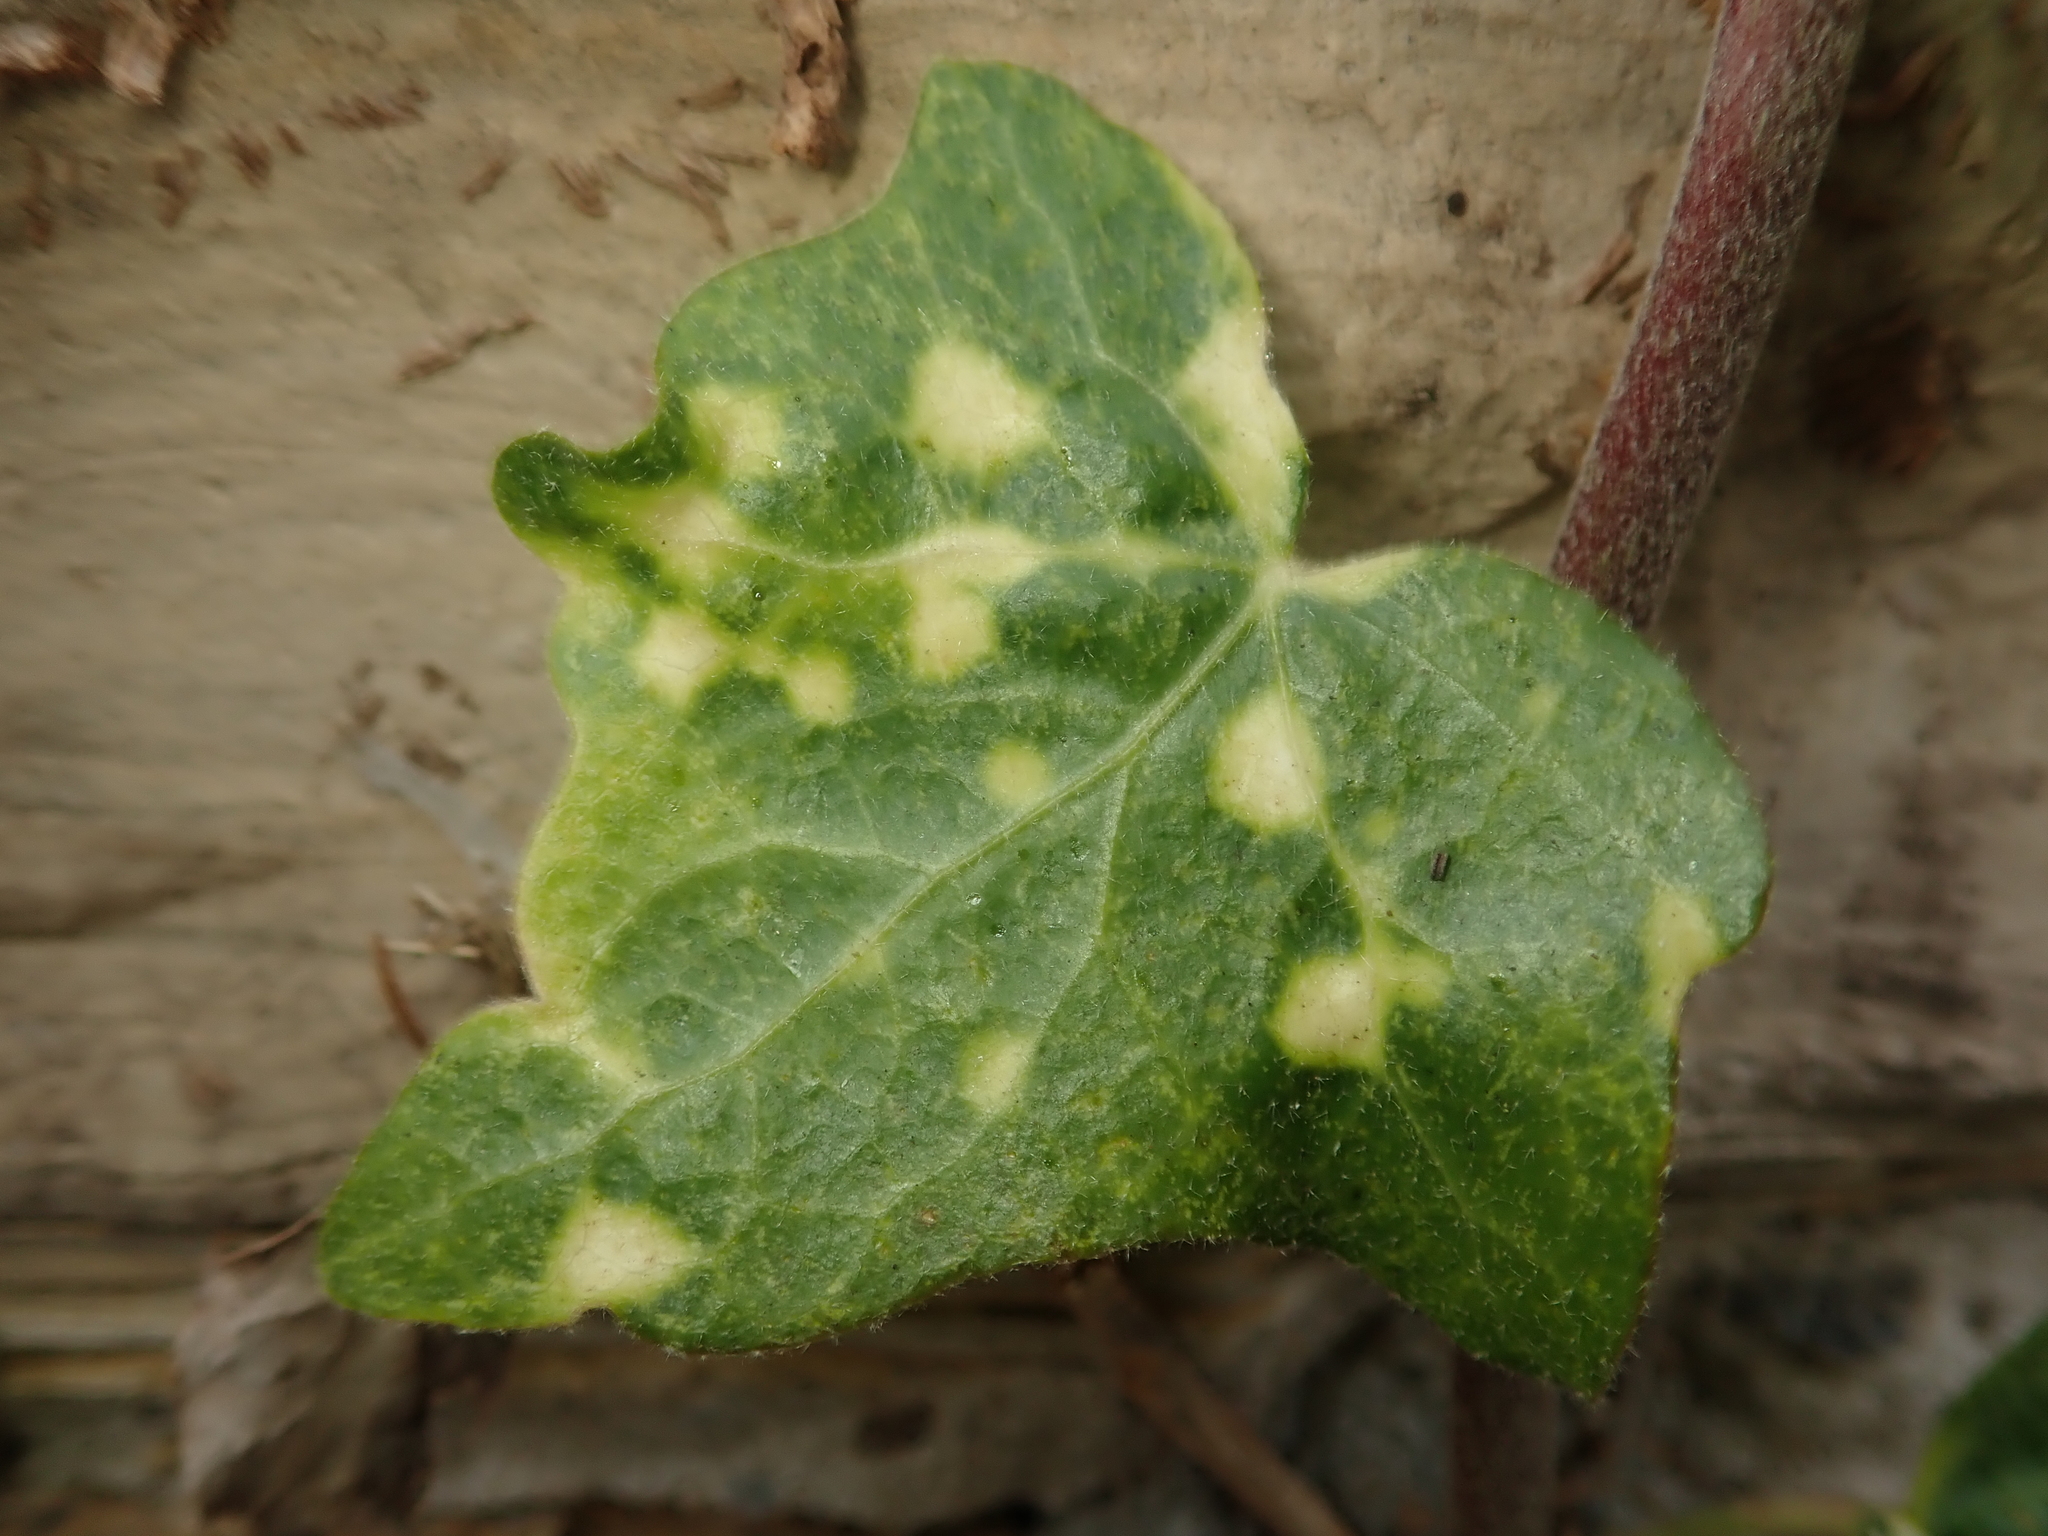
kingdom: Plantae
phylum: Tracheophyta
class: Magnoliopsida
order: Apiales
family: Araliaceae
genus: Hedera
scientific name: Hedera helix
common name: Ivy
